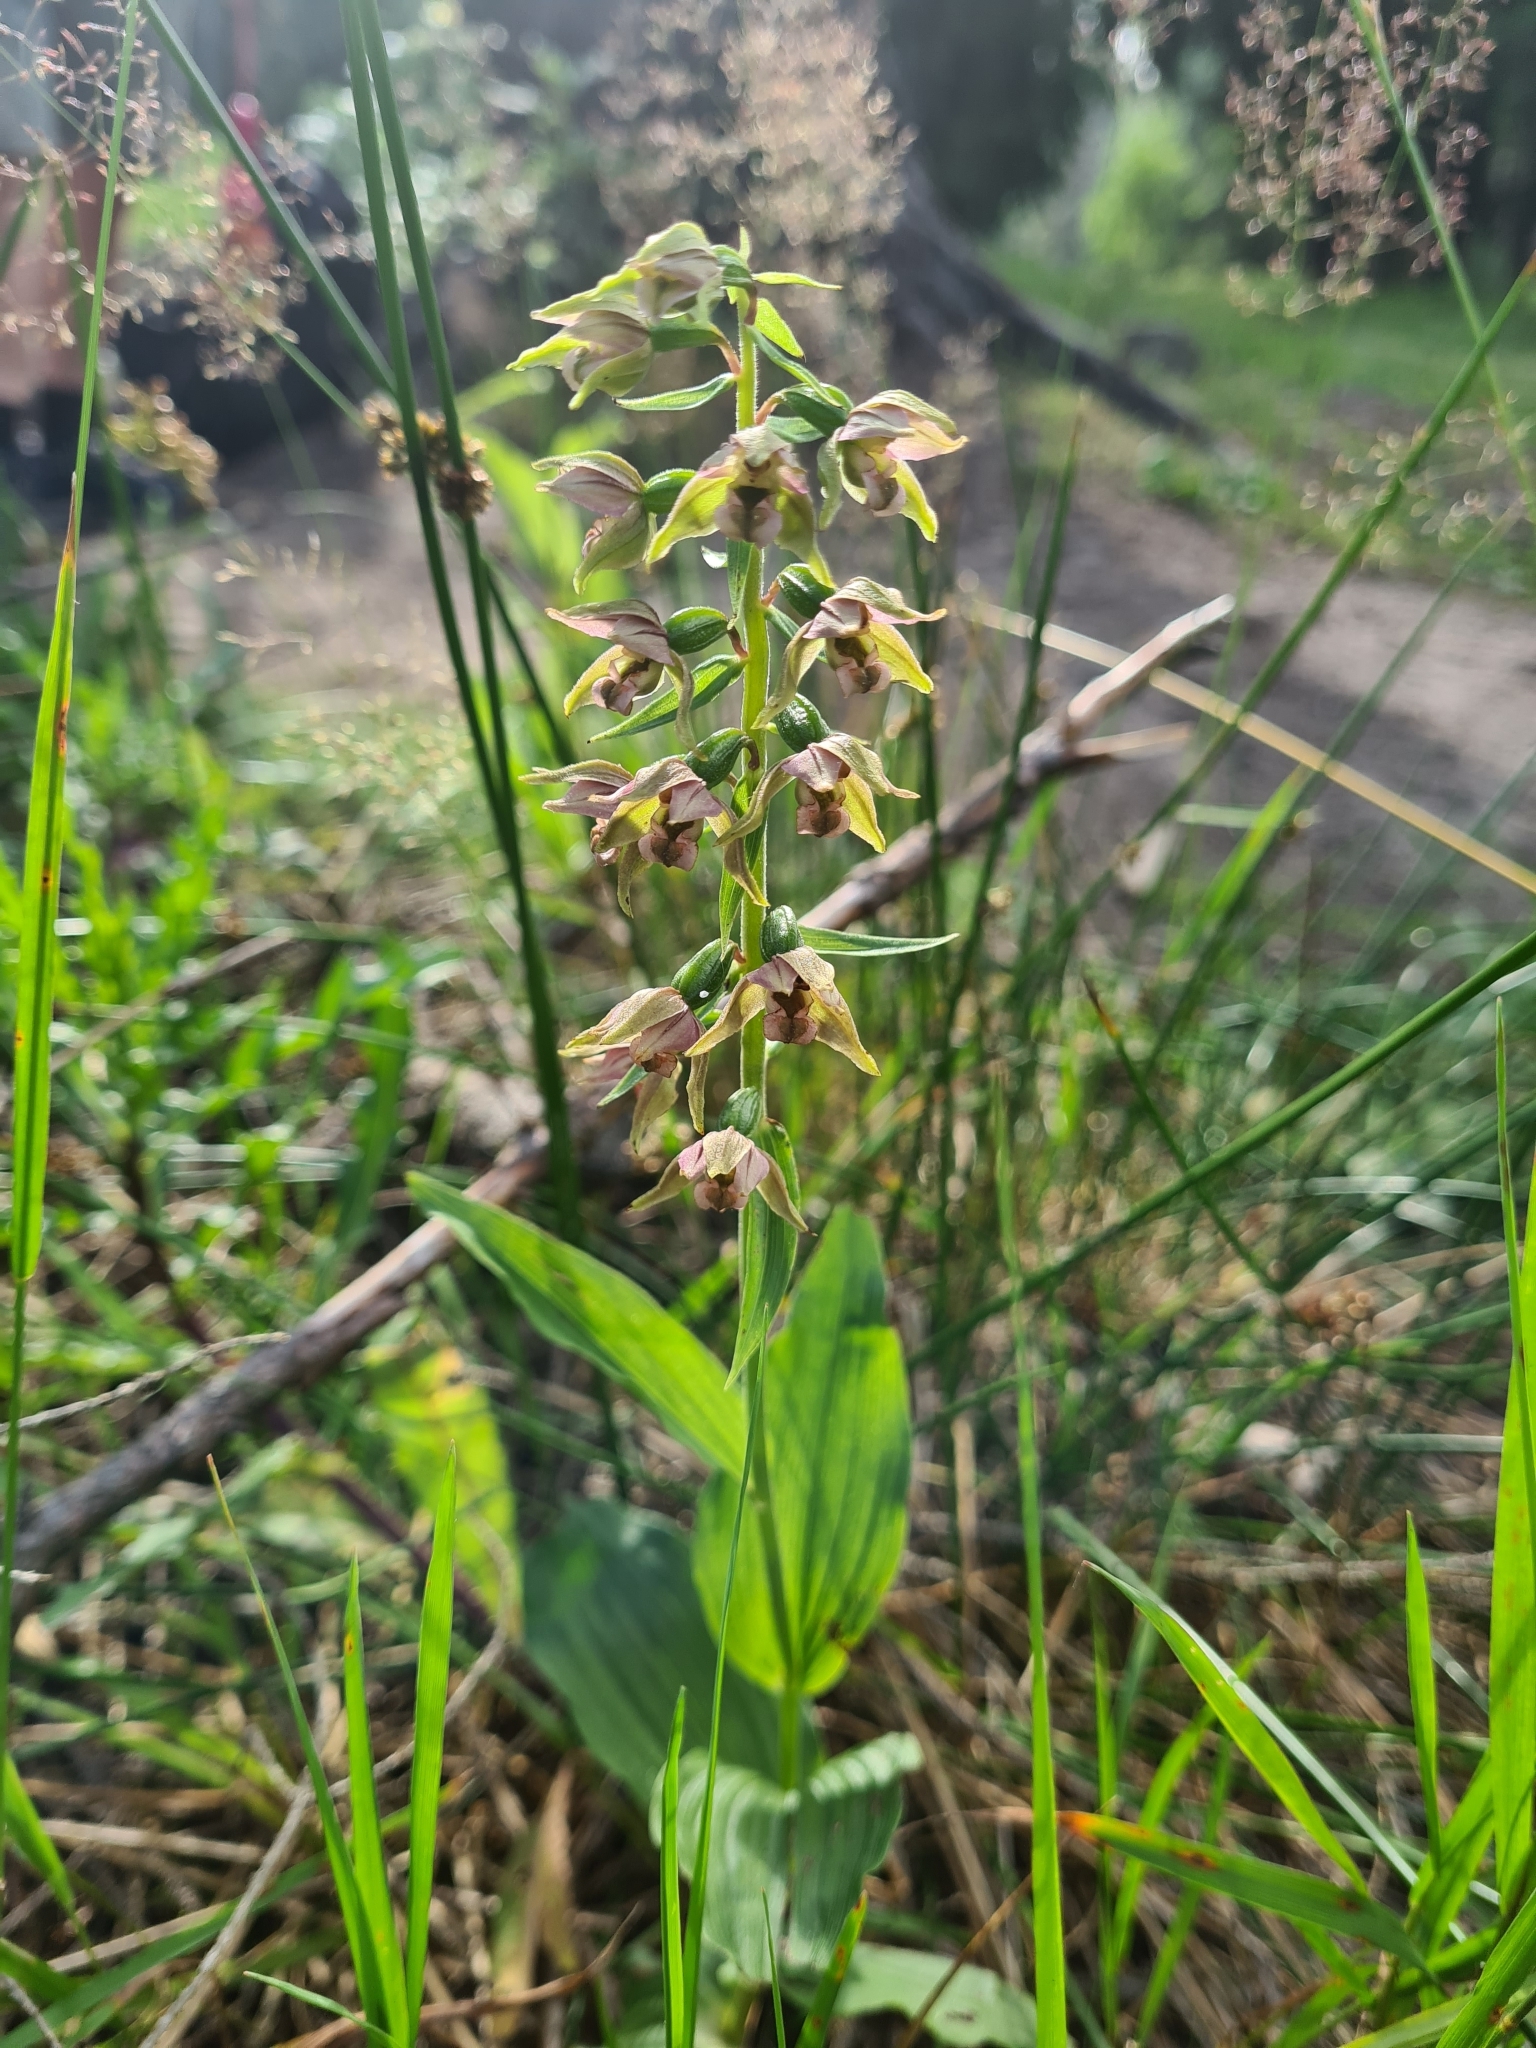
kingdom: Plantae
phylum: Tracheophyta
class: Liliopsida
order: Asparagales
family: Orchidaceae
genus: Epipactis
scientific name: Epipactis helleborine
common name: Broad-leaved helleborine
